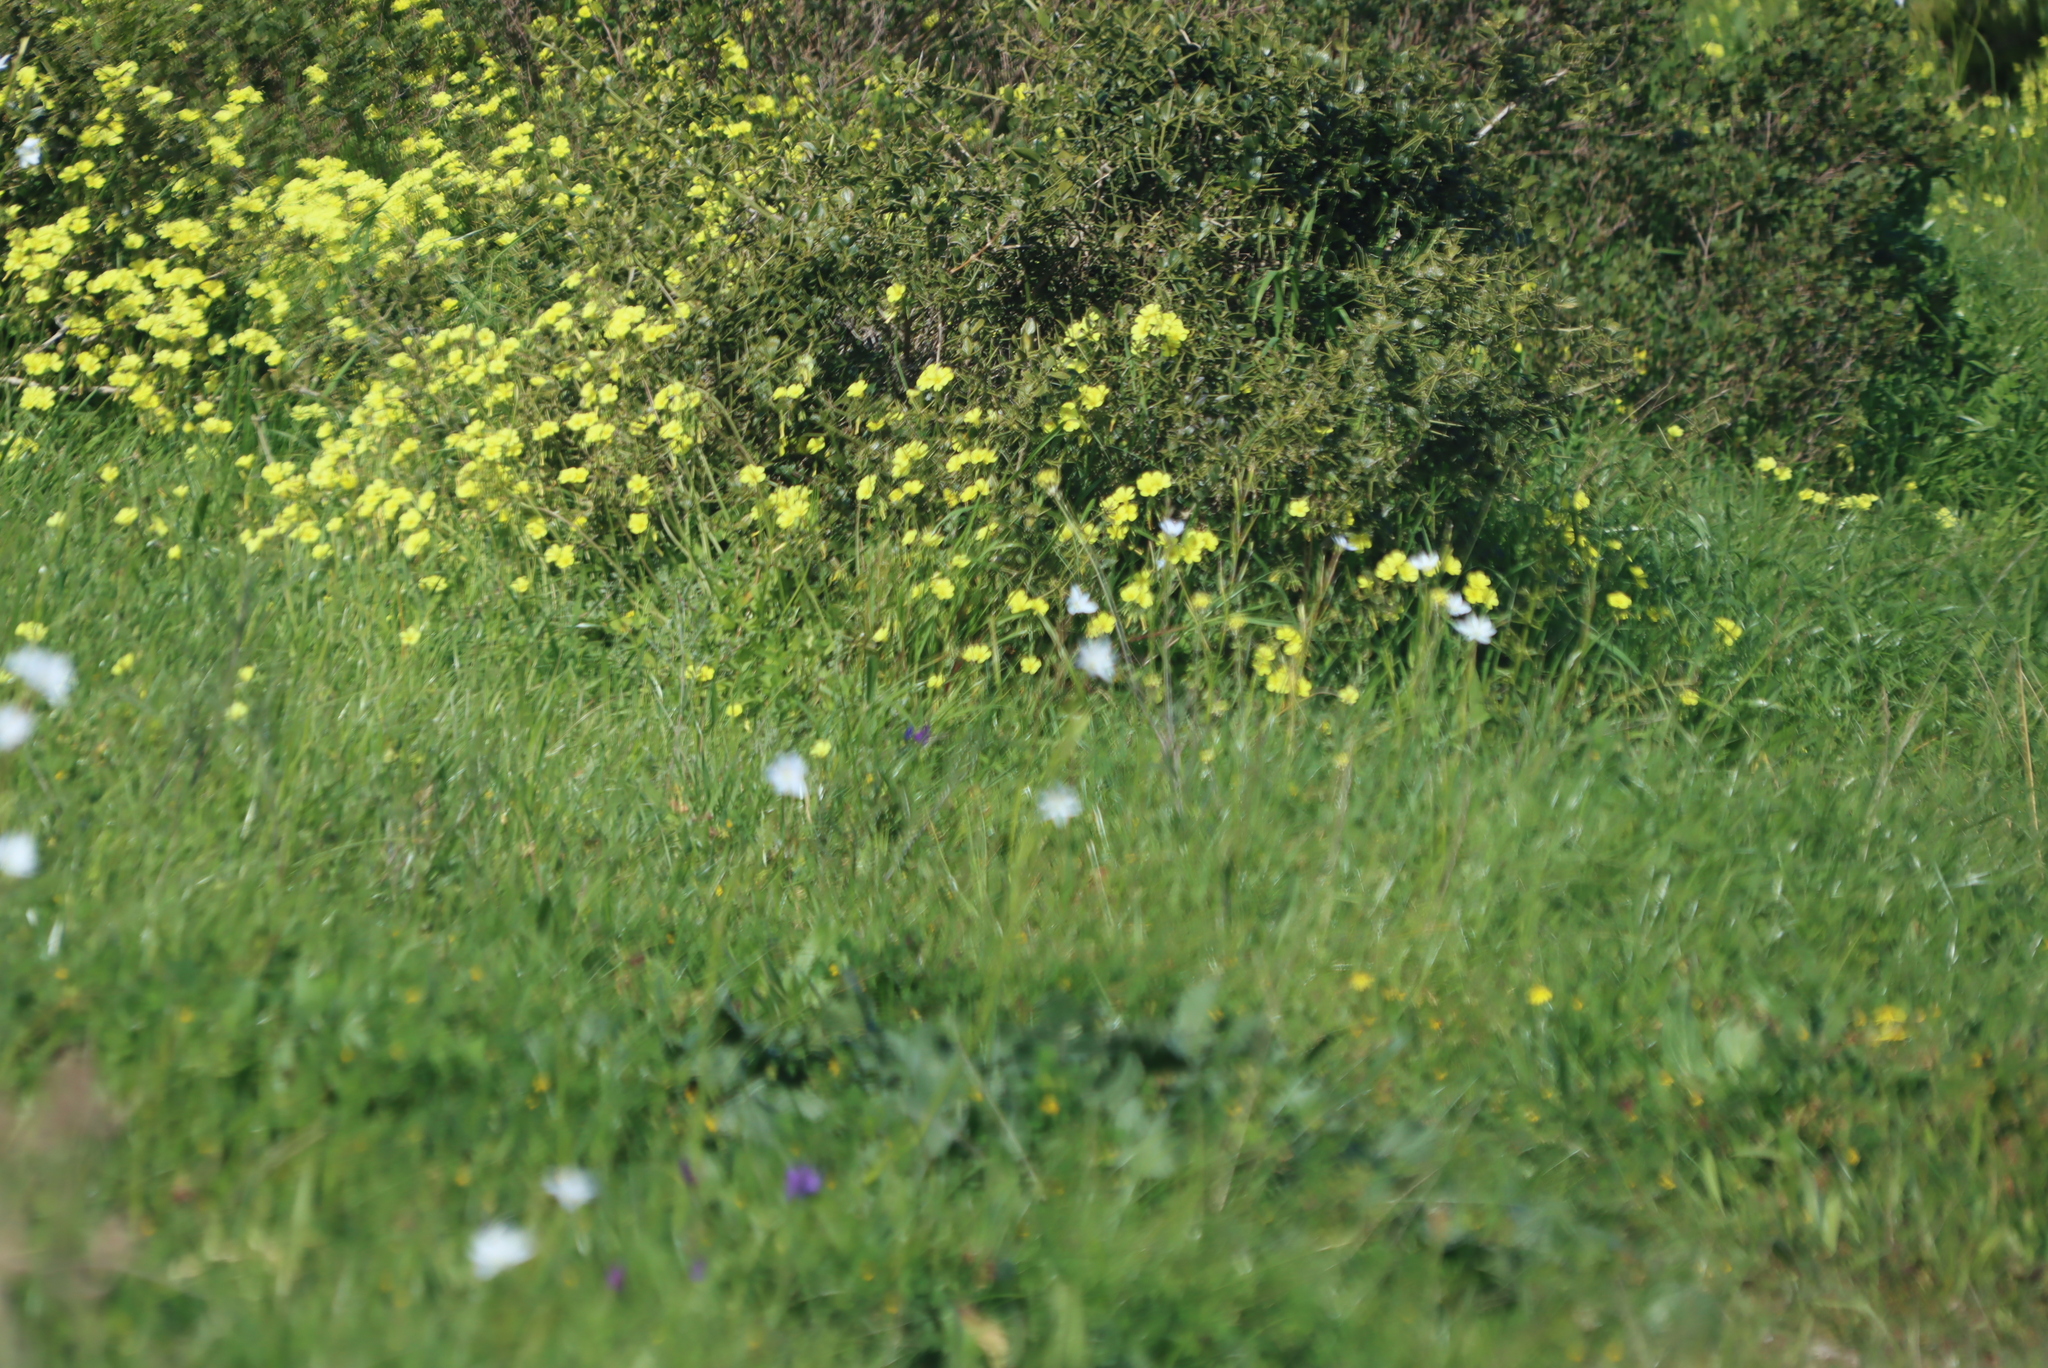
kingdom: Plantae
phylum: Tracheophyta
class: Magnoliopsida
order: Oxalidales
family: Oxalidaceae
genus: Oxalis
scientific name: Oxalis pes-caprae
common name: Bermuda-buttercup
